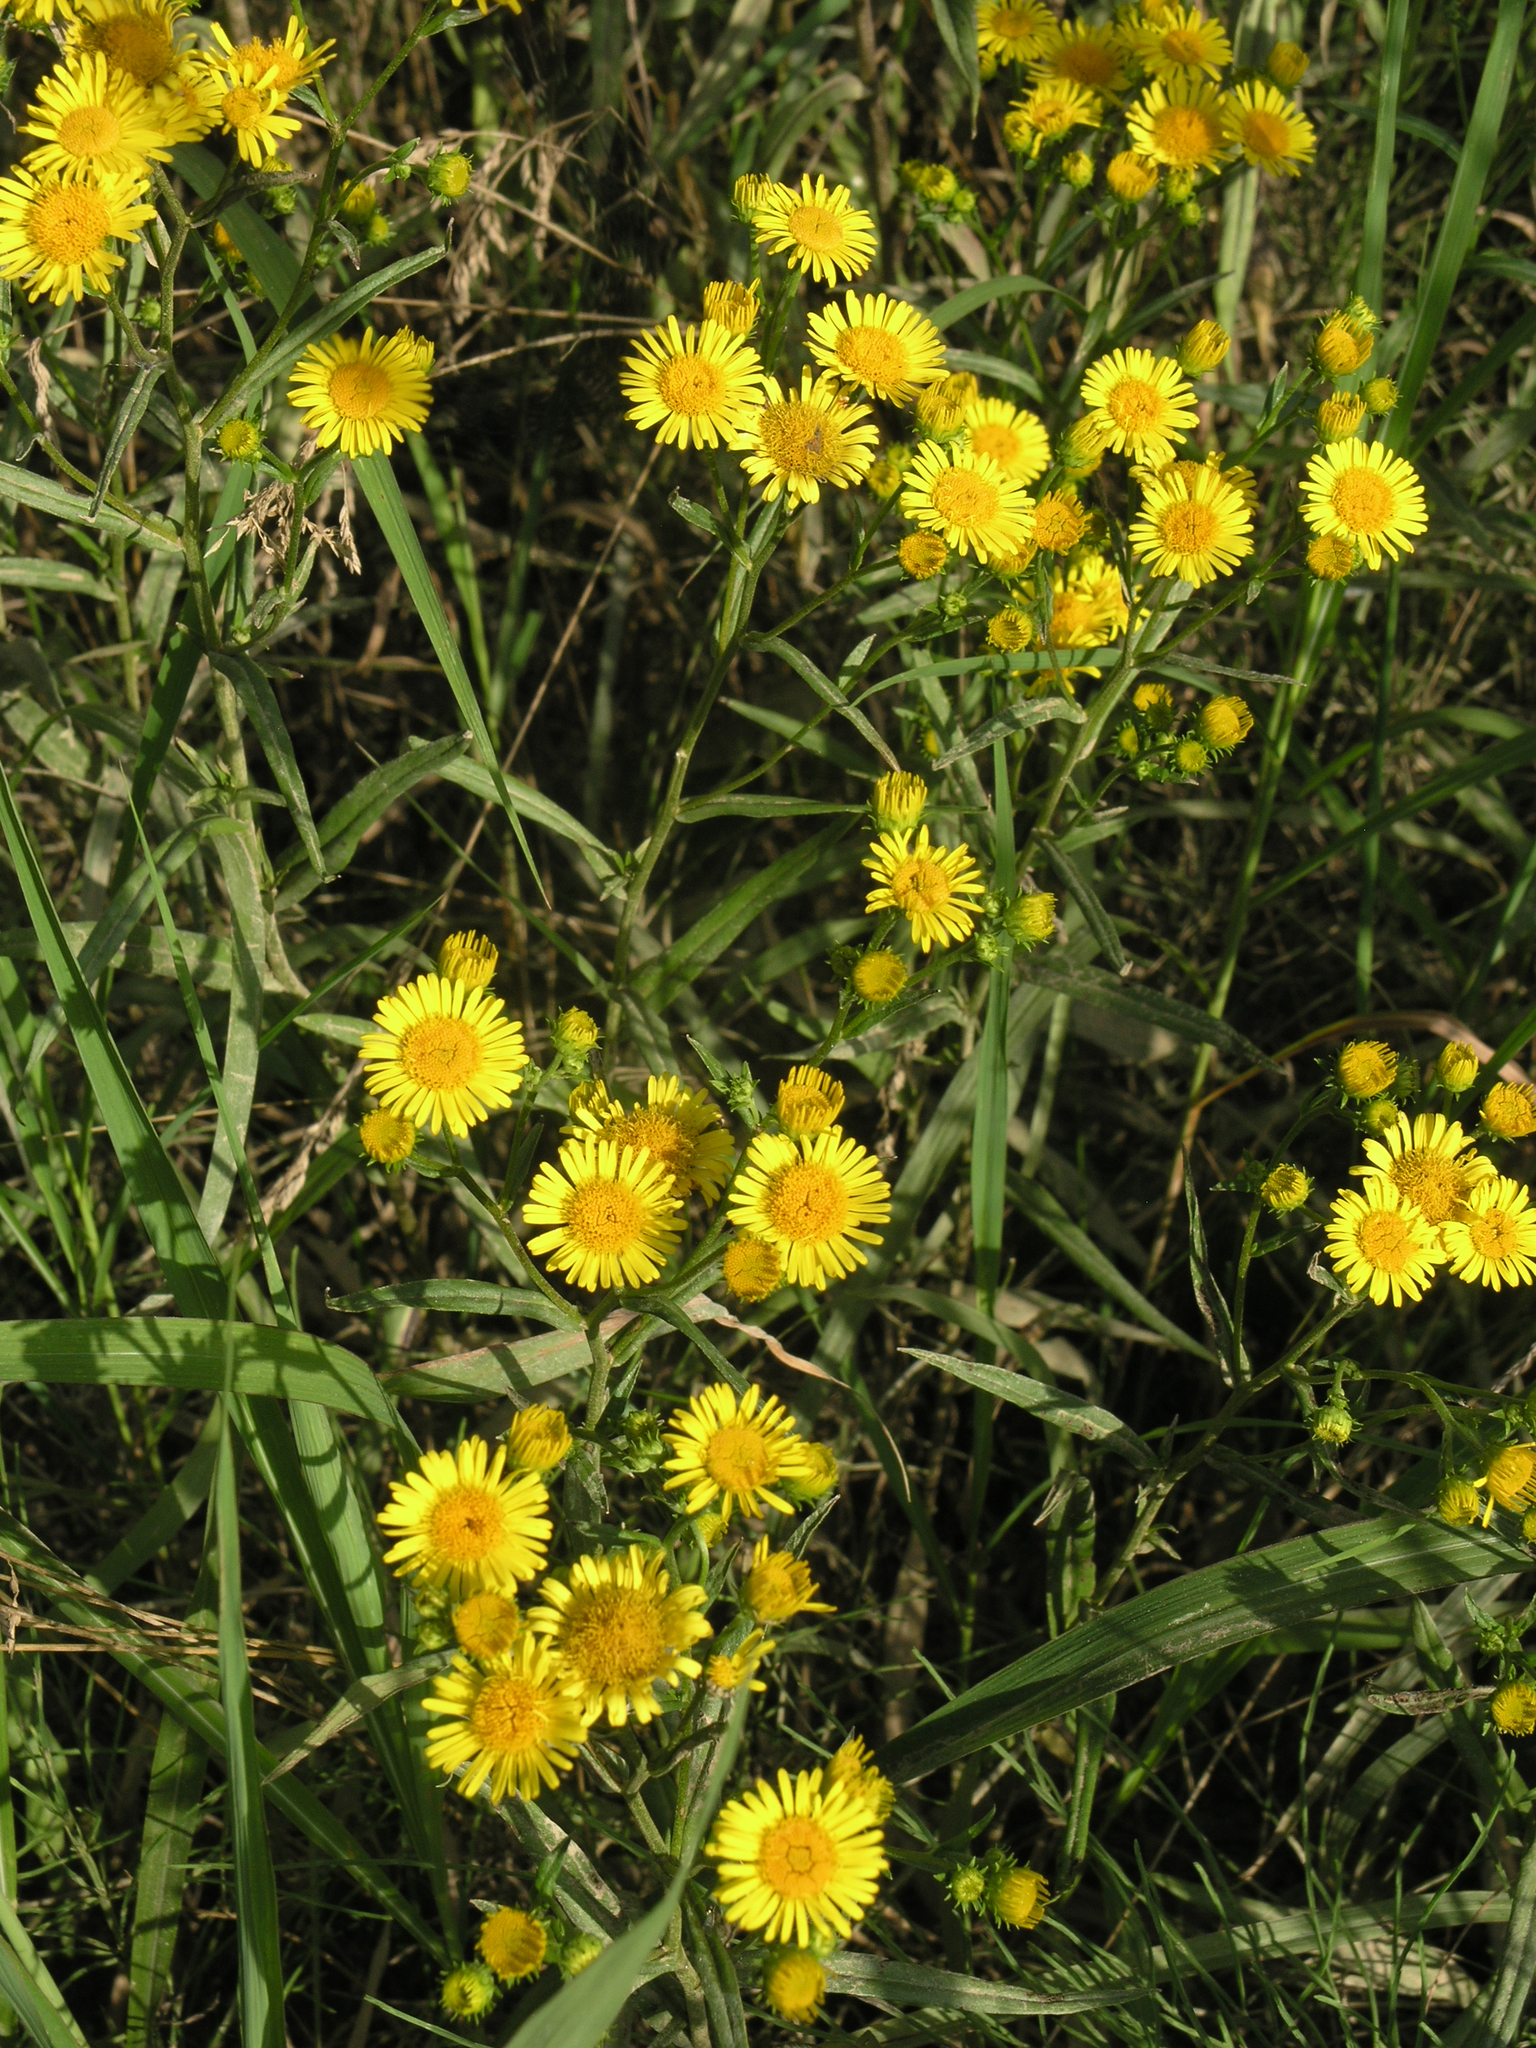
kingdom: Plantae
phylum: Tracheophyta
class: Magnoliopsida
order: Asterales
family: Asteraceae
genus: Inula
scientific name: Inula linariifolia
